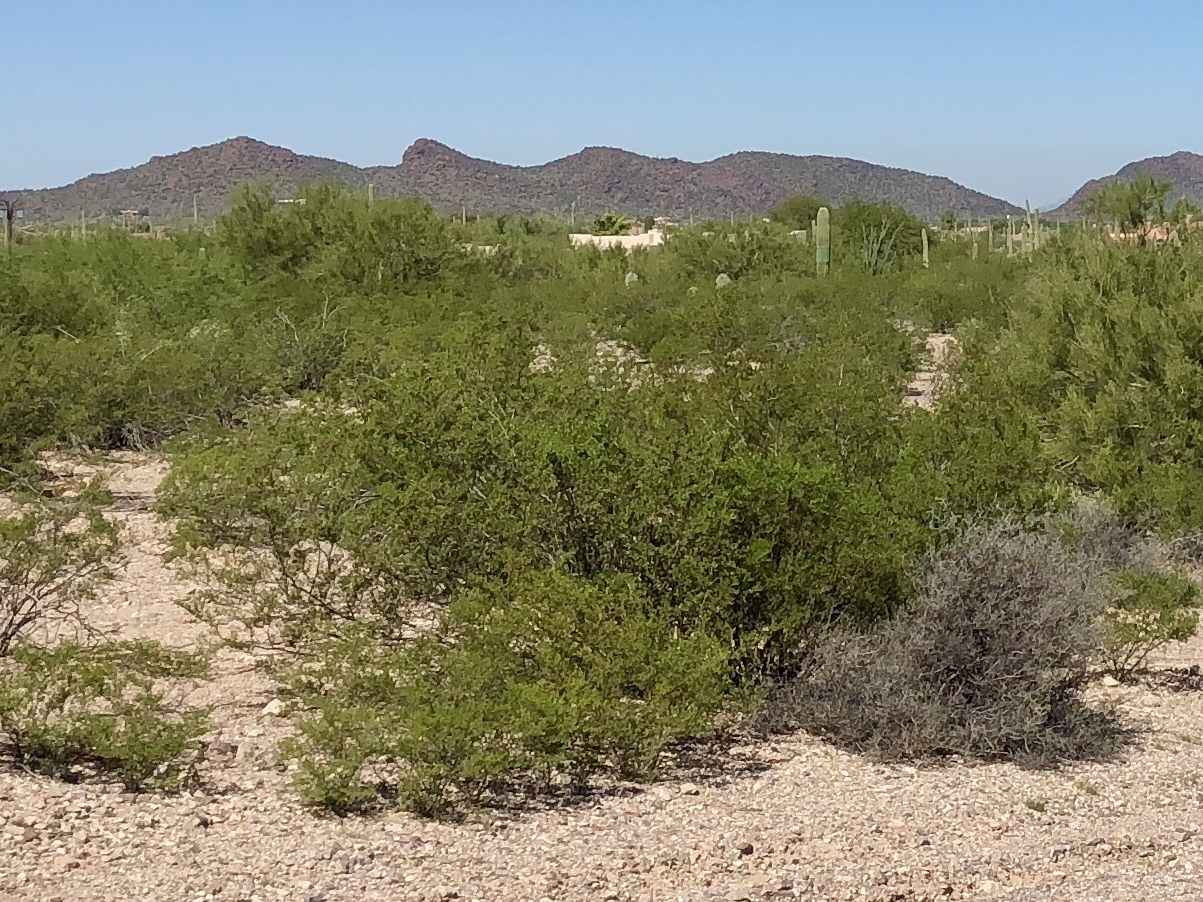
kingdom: Plantae
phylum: Tracheophyta
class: Magnoliopsida
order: Zygophyllales
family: Zygophyllaceae
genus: Larrea
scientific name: Larrea tridentata
